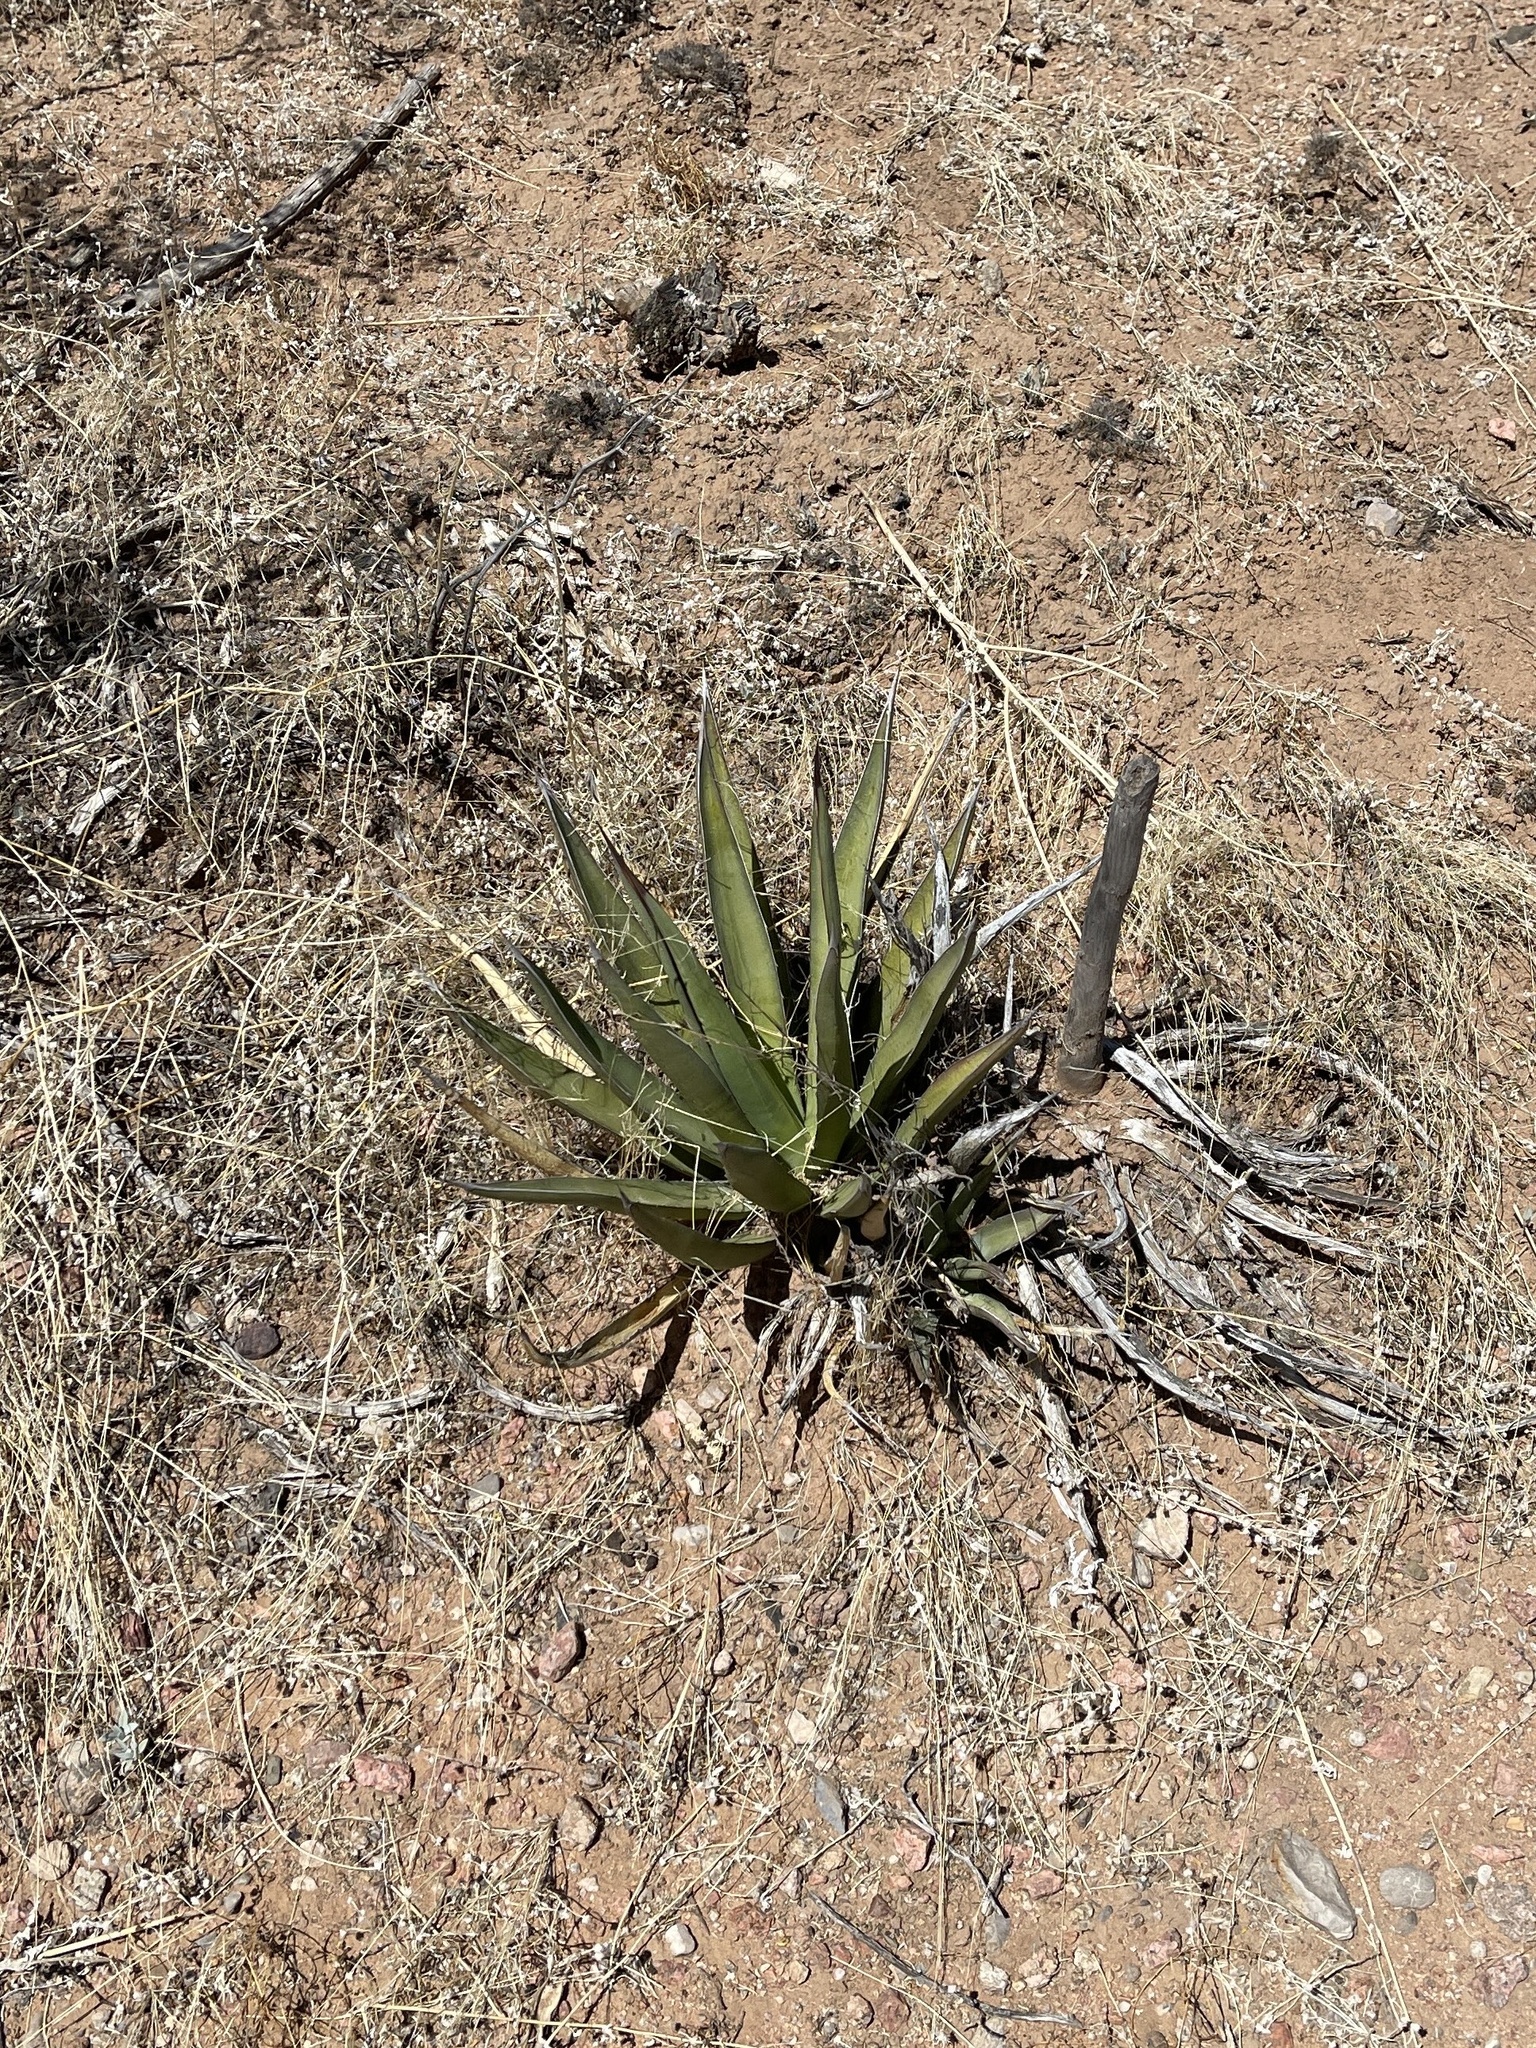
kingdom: Plantae
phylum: Tracheophyta
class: Liliopsida
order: Asparagales
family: Asparagaceae
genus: Agave
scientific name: Agave lechuguilla
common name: Lecheguilla agave
